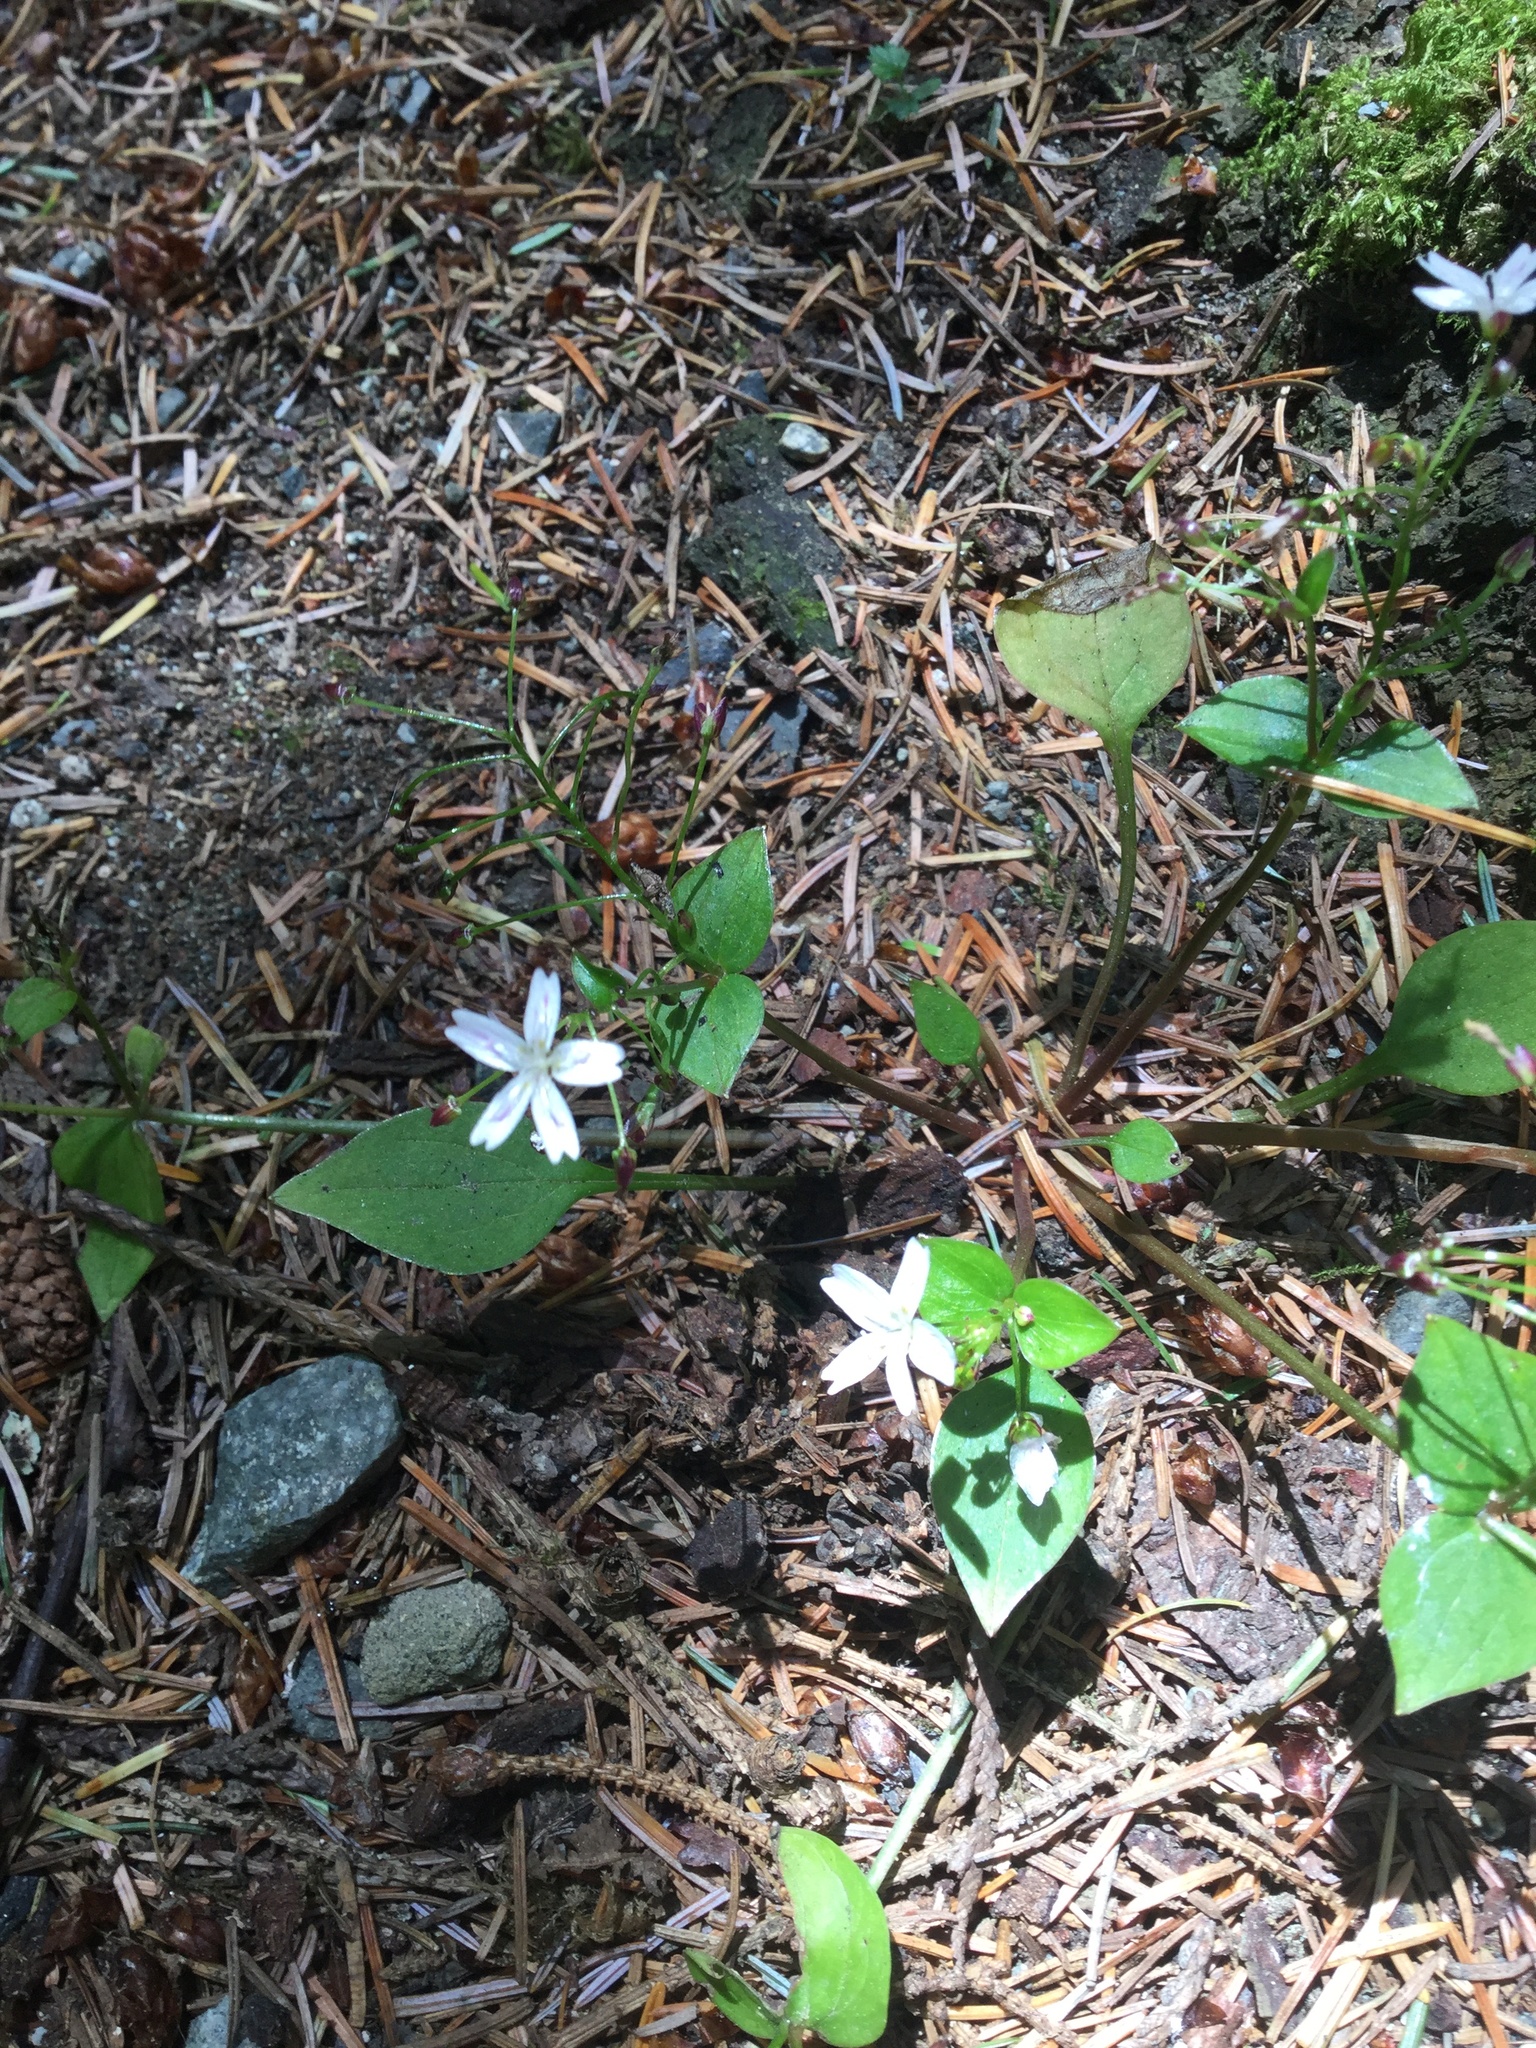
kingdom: Plantae
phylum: Tracheophyta
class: Magnoliopsida
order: Caryophyllales
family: Montiaceae
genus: Claytonia
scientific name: Claytonia sibirica
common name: Pink purslane
